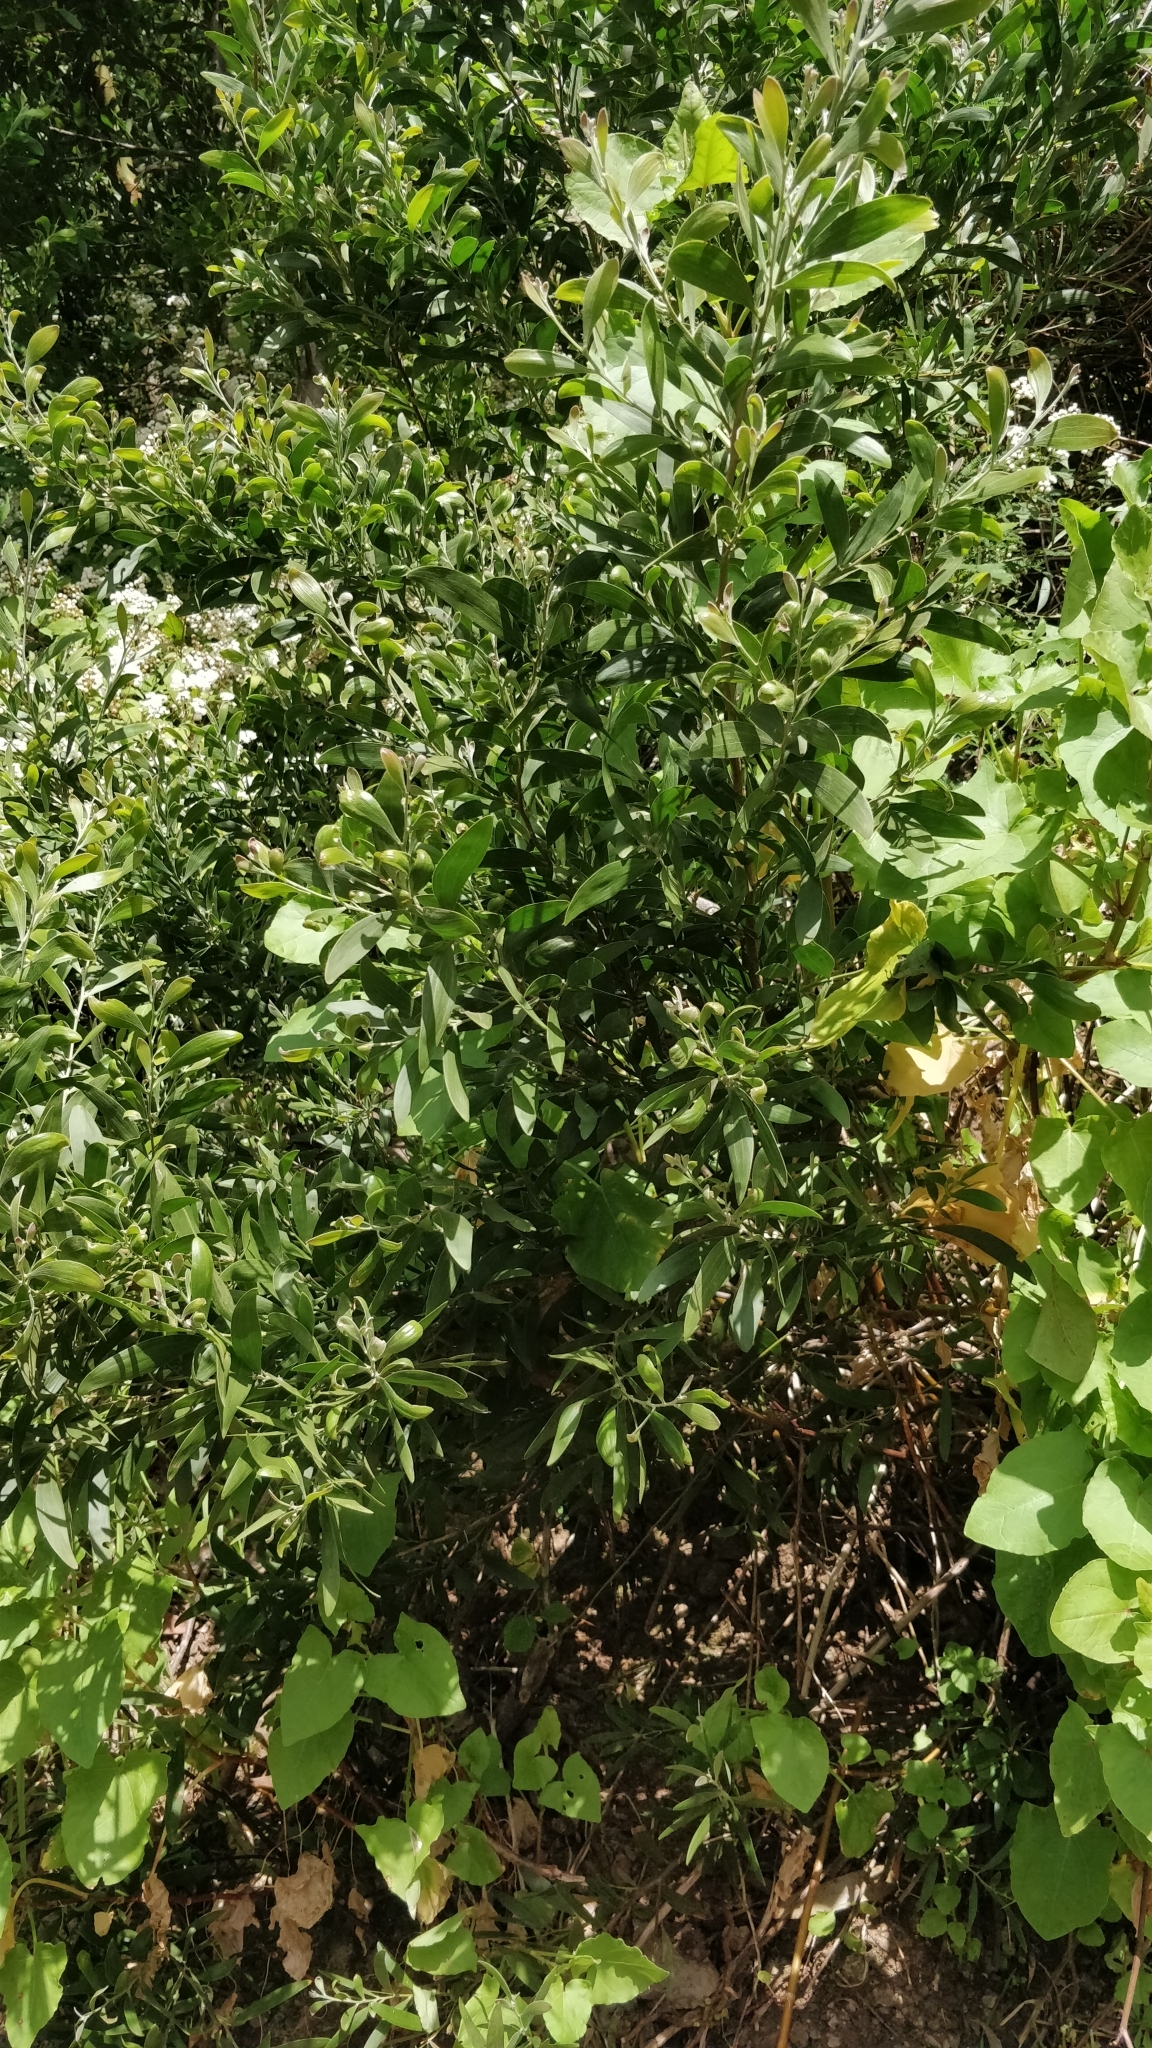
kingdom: Plantae
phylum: Tracheophyta
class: Magnoliopsida
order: Fabales
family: Fabaceae
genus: Acacia
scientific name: Acacia melanoxylon
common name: Blackwood
